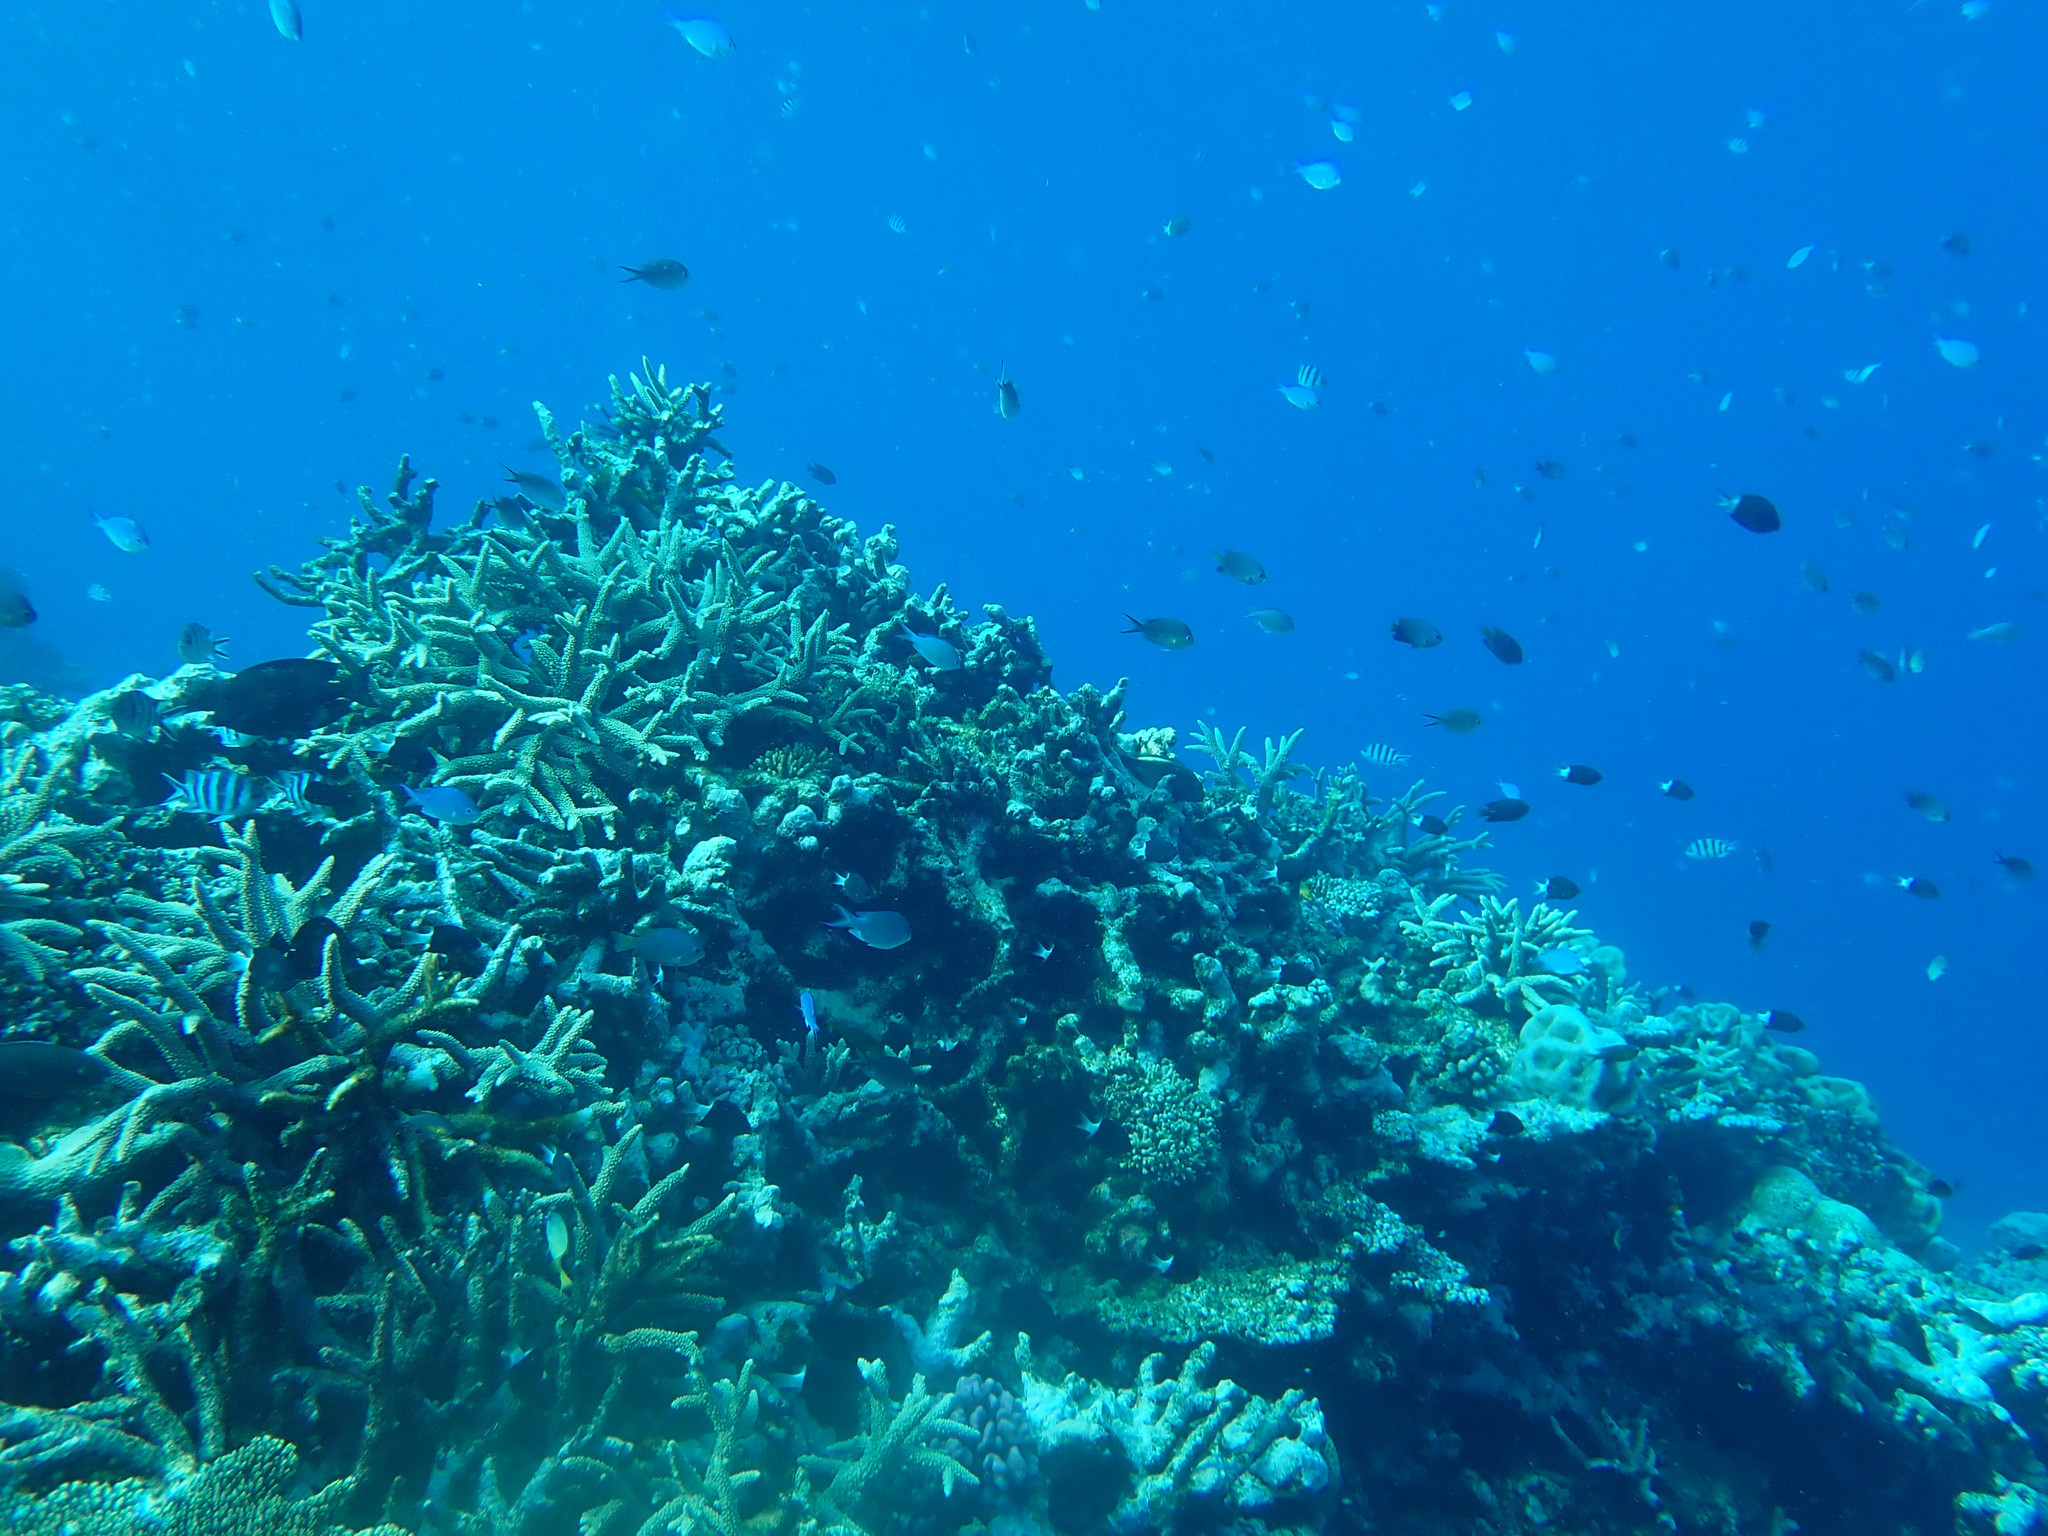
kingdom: Animalia
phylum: Chordata
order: Perciformes
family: Pomacentridae
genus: Pomacentrus
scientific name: Pomacentrus lepidogenys
